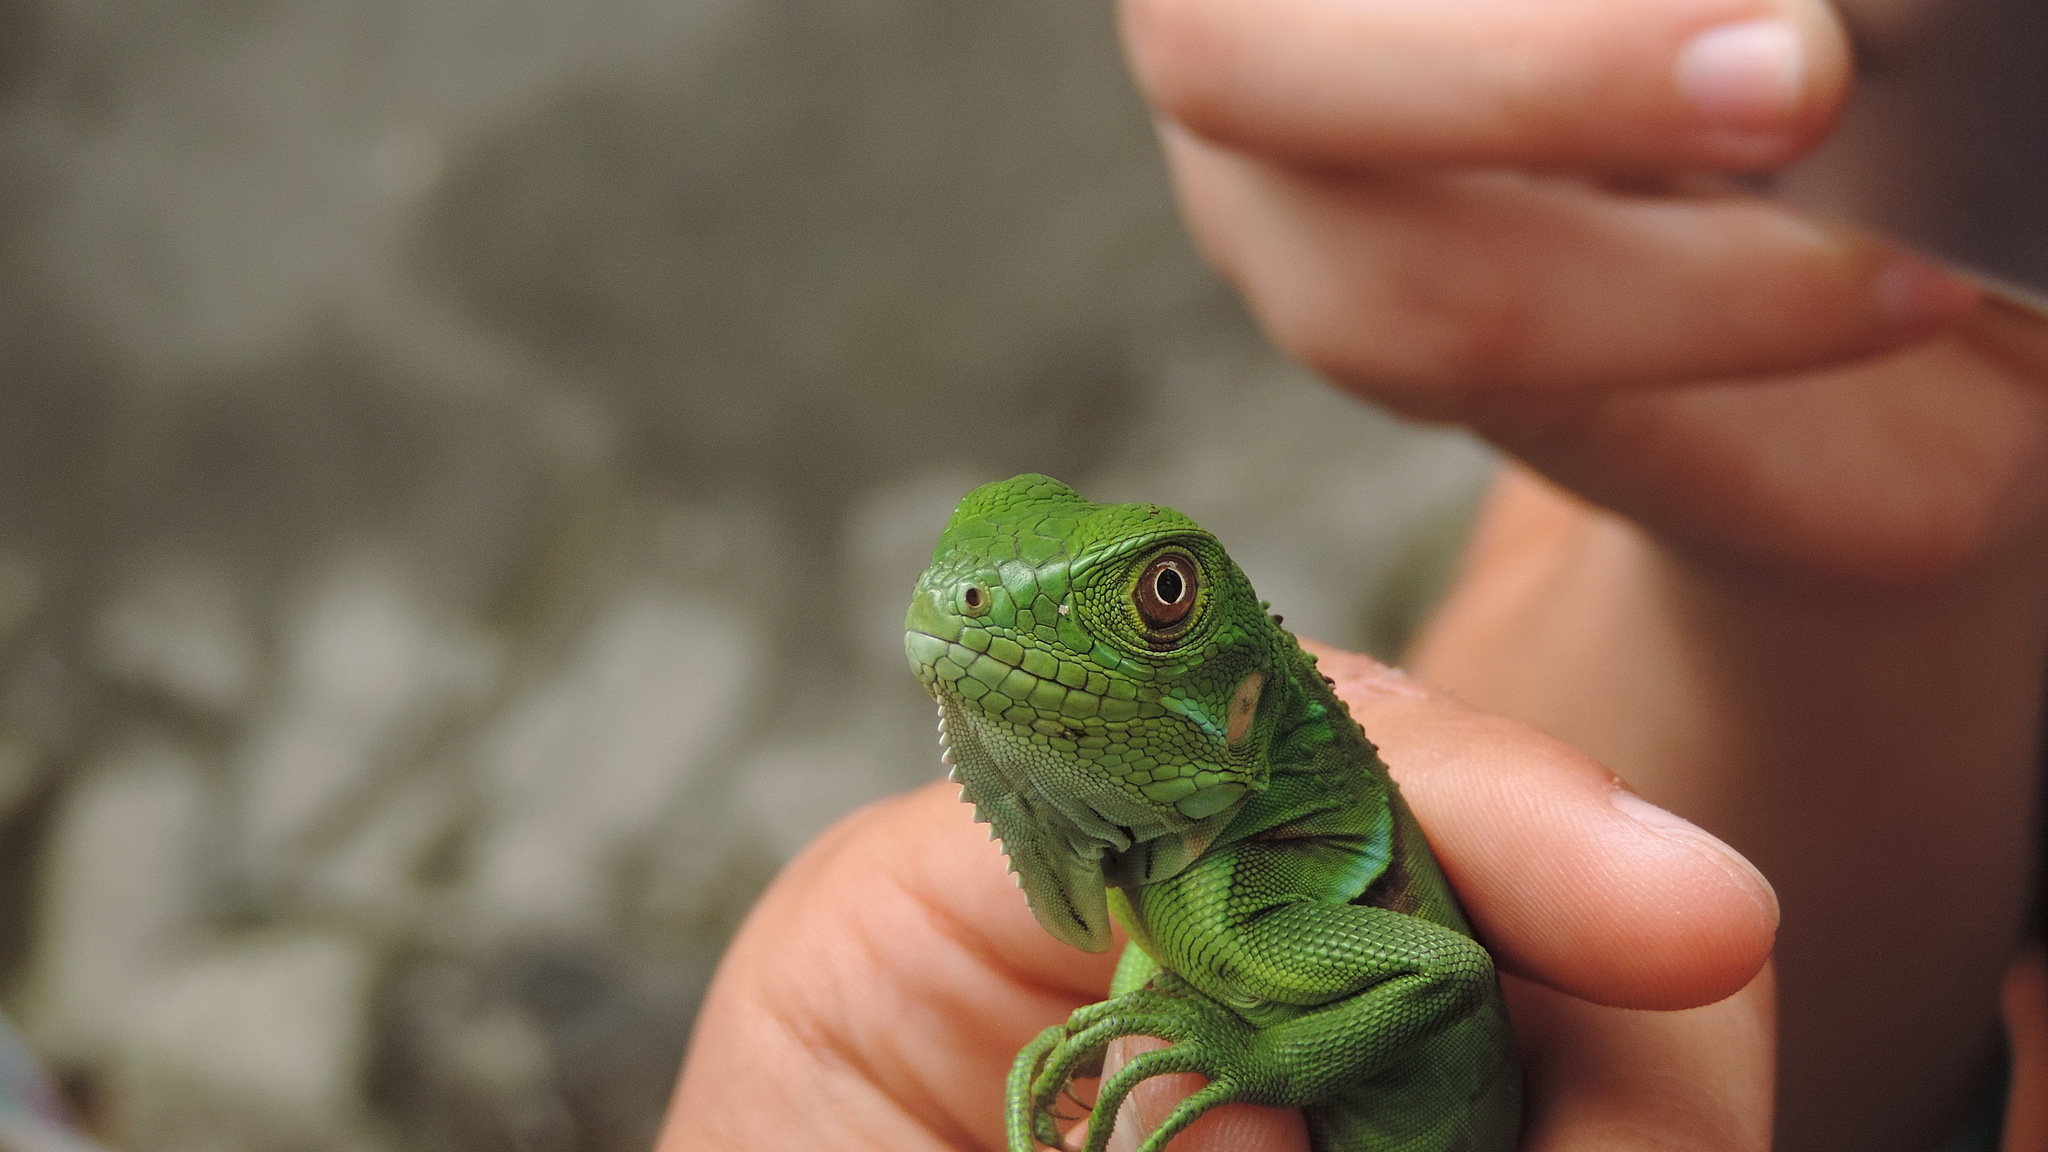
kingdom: Animalia
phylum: Chordata
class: Squamata
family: Iguanidae
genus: Iguana
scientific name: Iguana iguana
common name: Green iguana
